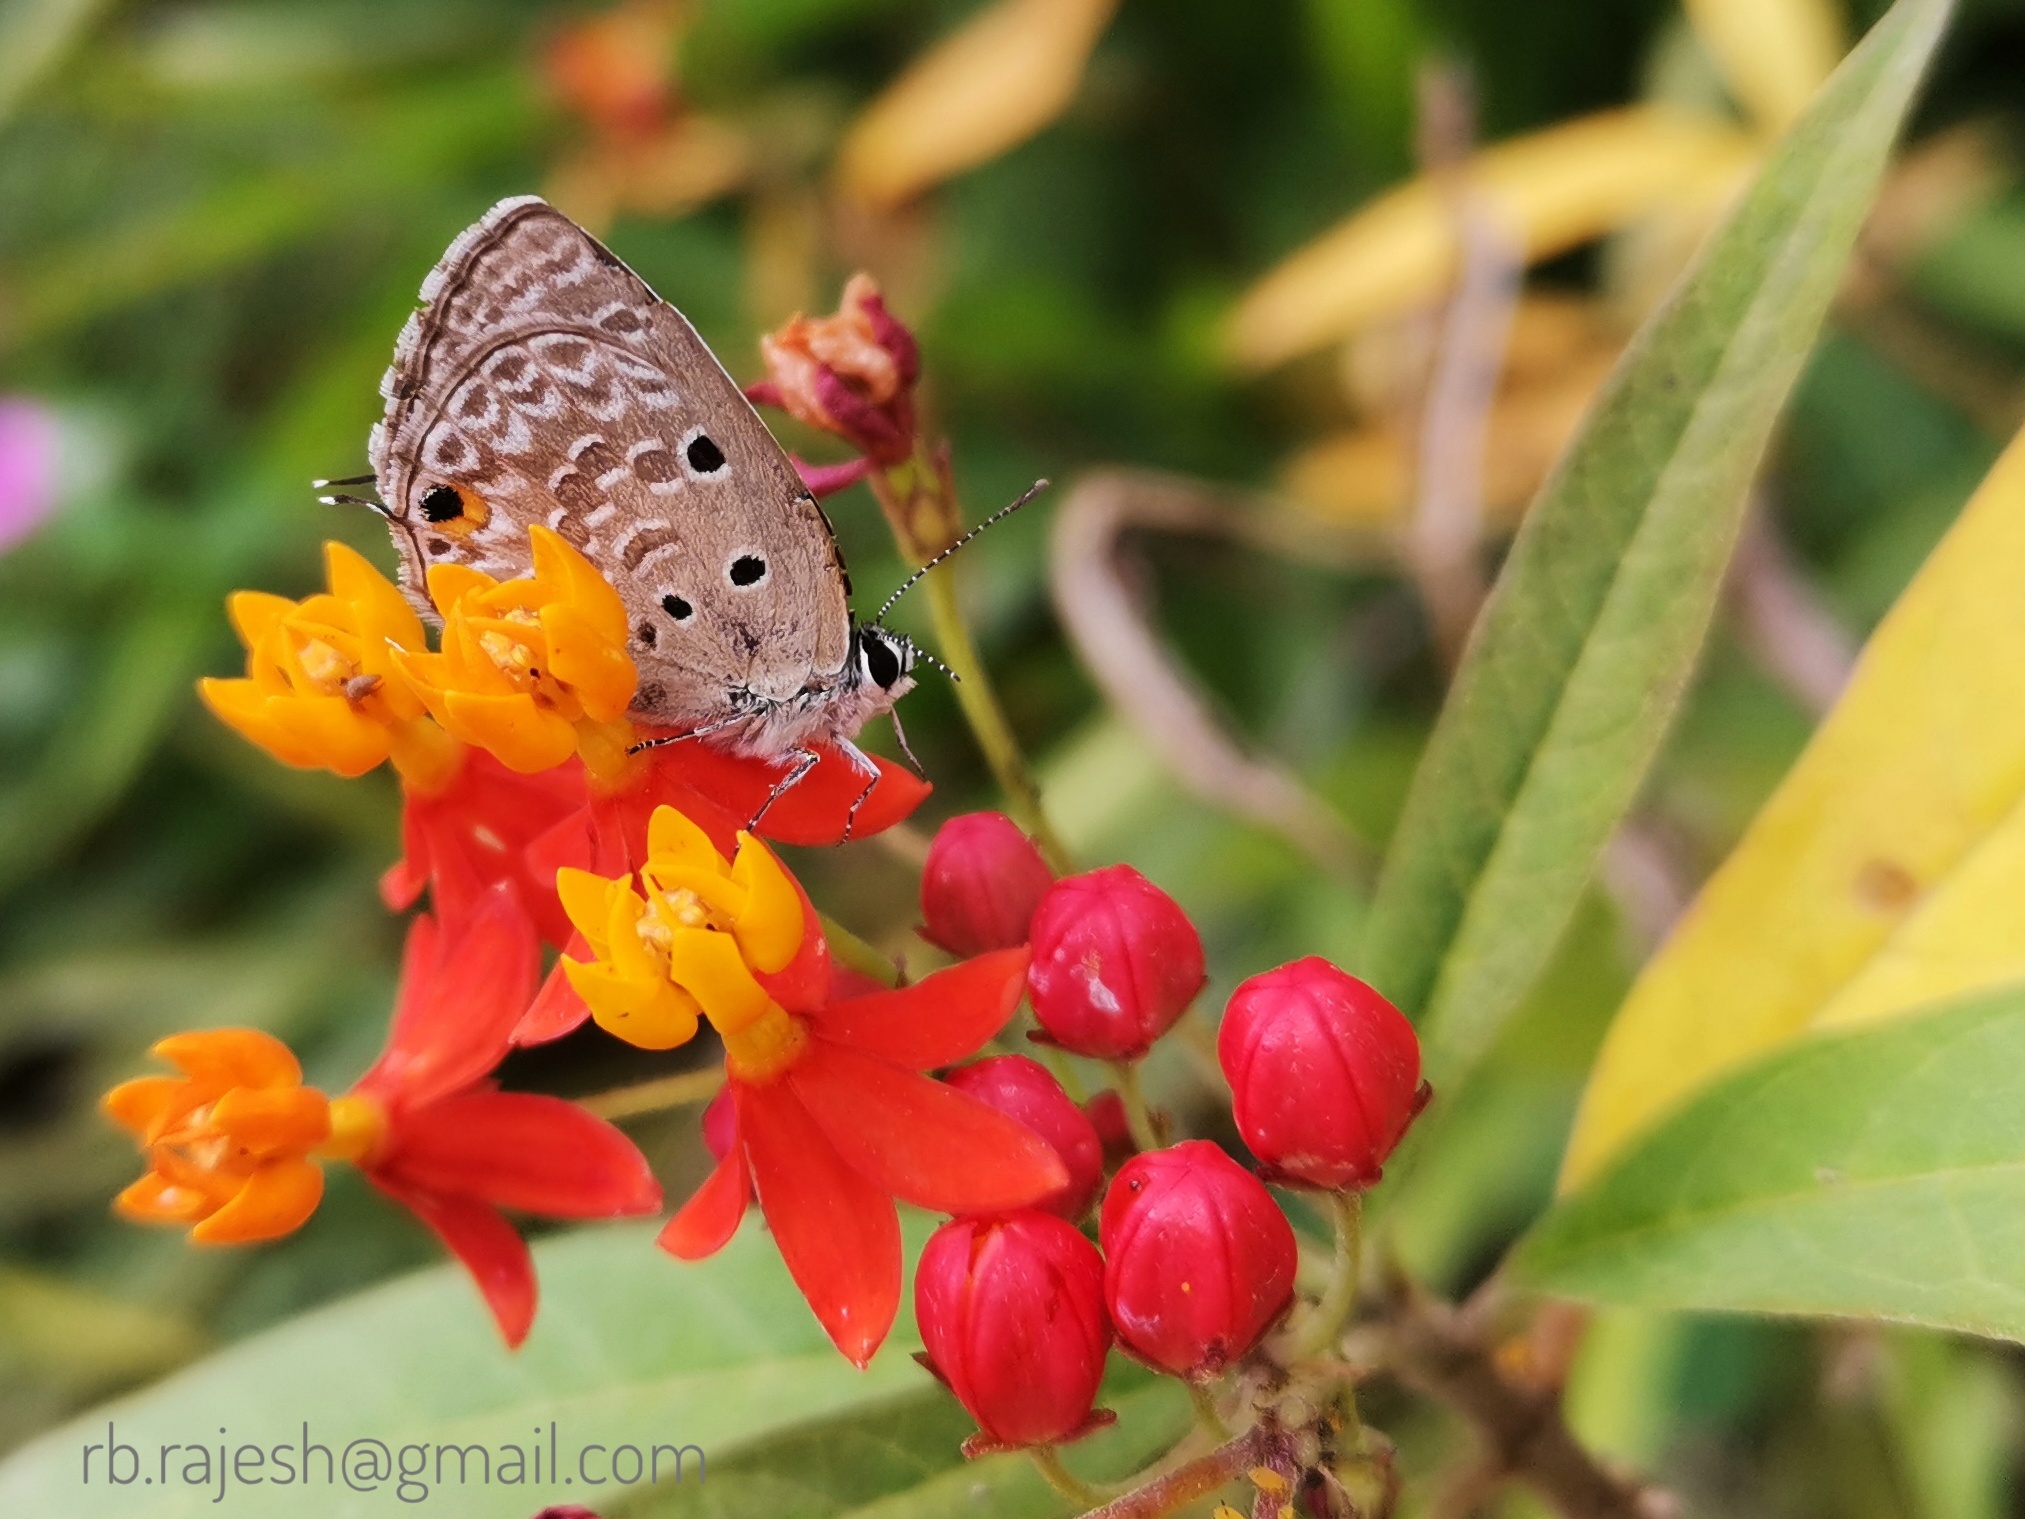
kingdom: Animalia
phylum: Arthropoda
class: Insecta
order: Lepidoptera
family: Lycaenidae
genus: Luthrodes
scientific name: Luthrodes pandava
